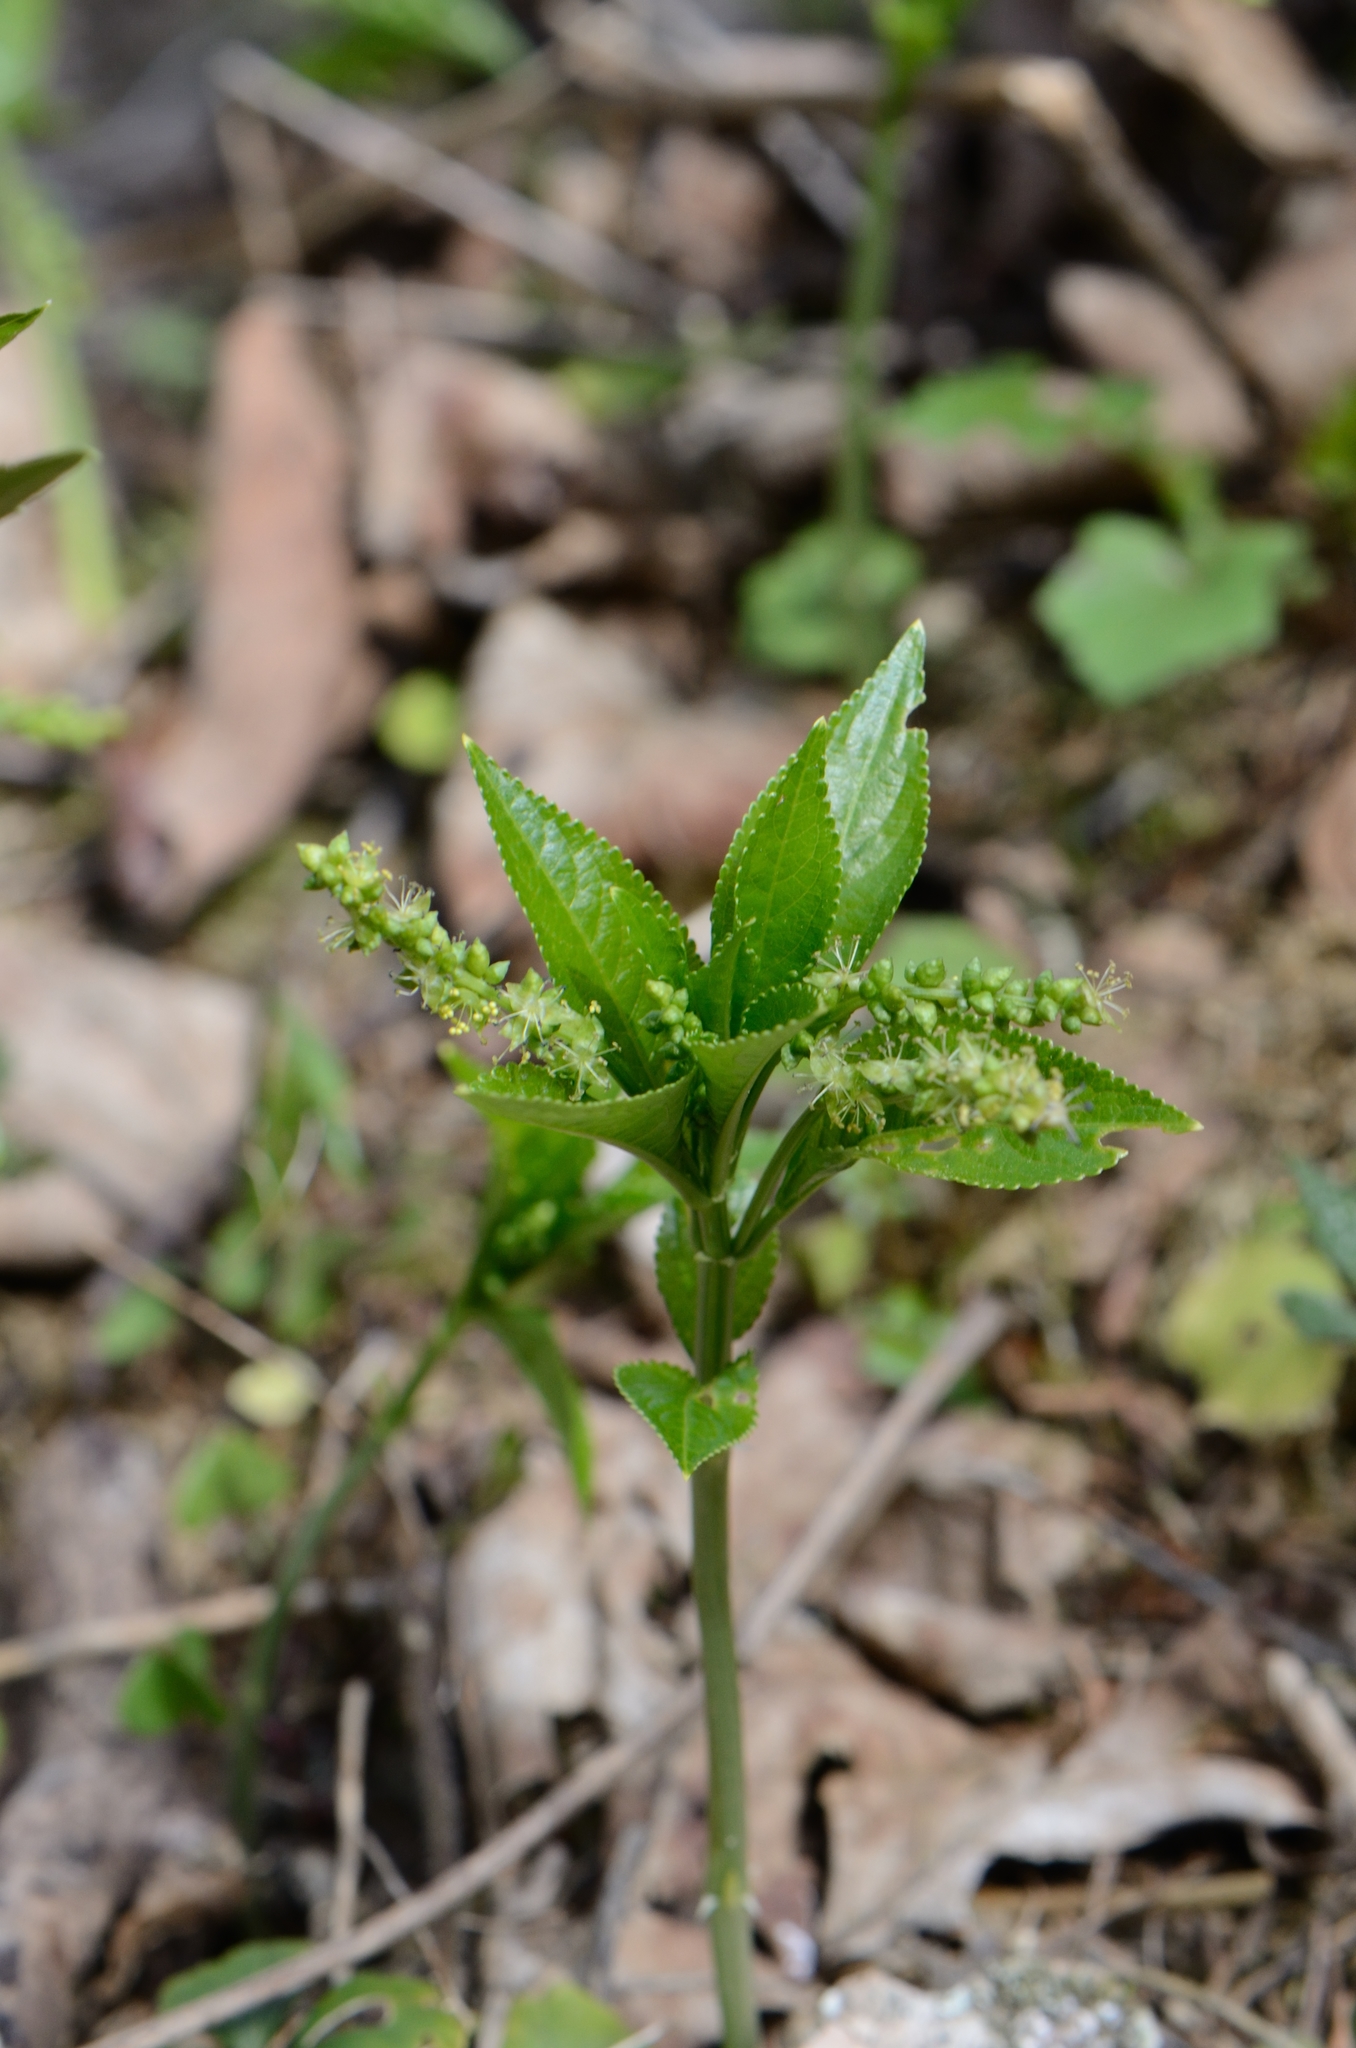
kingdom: Plantae
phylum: Tracheophyta
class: Magnoliopsida
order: Malpighiales
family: Euphorbiaceae
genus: Mercurialis
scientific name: Mercurialis perennis
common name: Dog mercury
